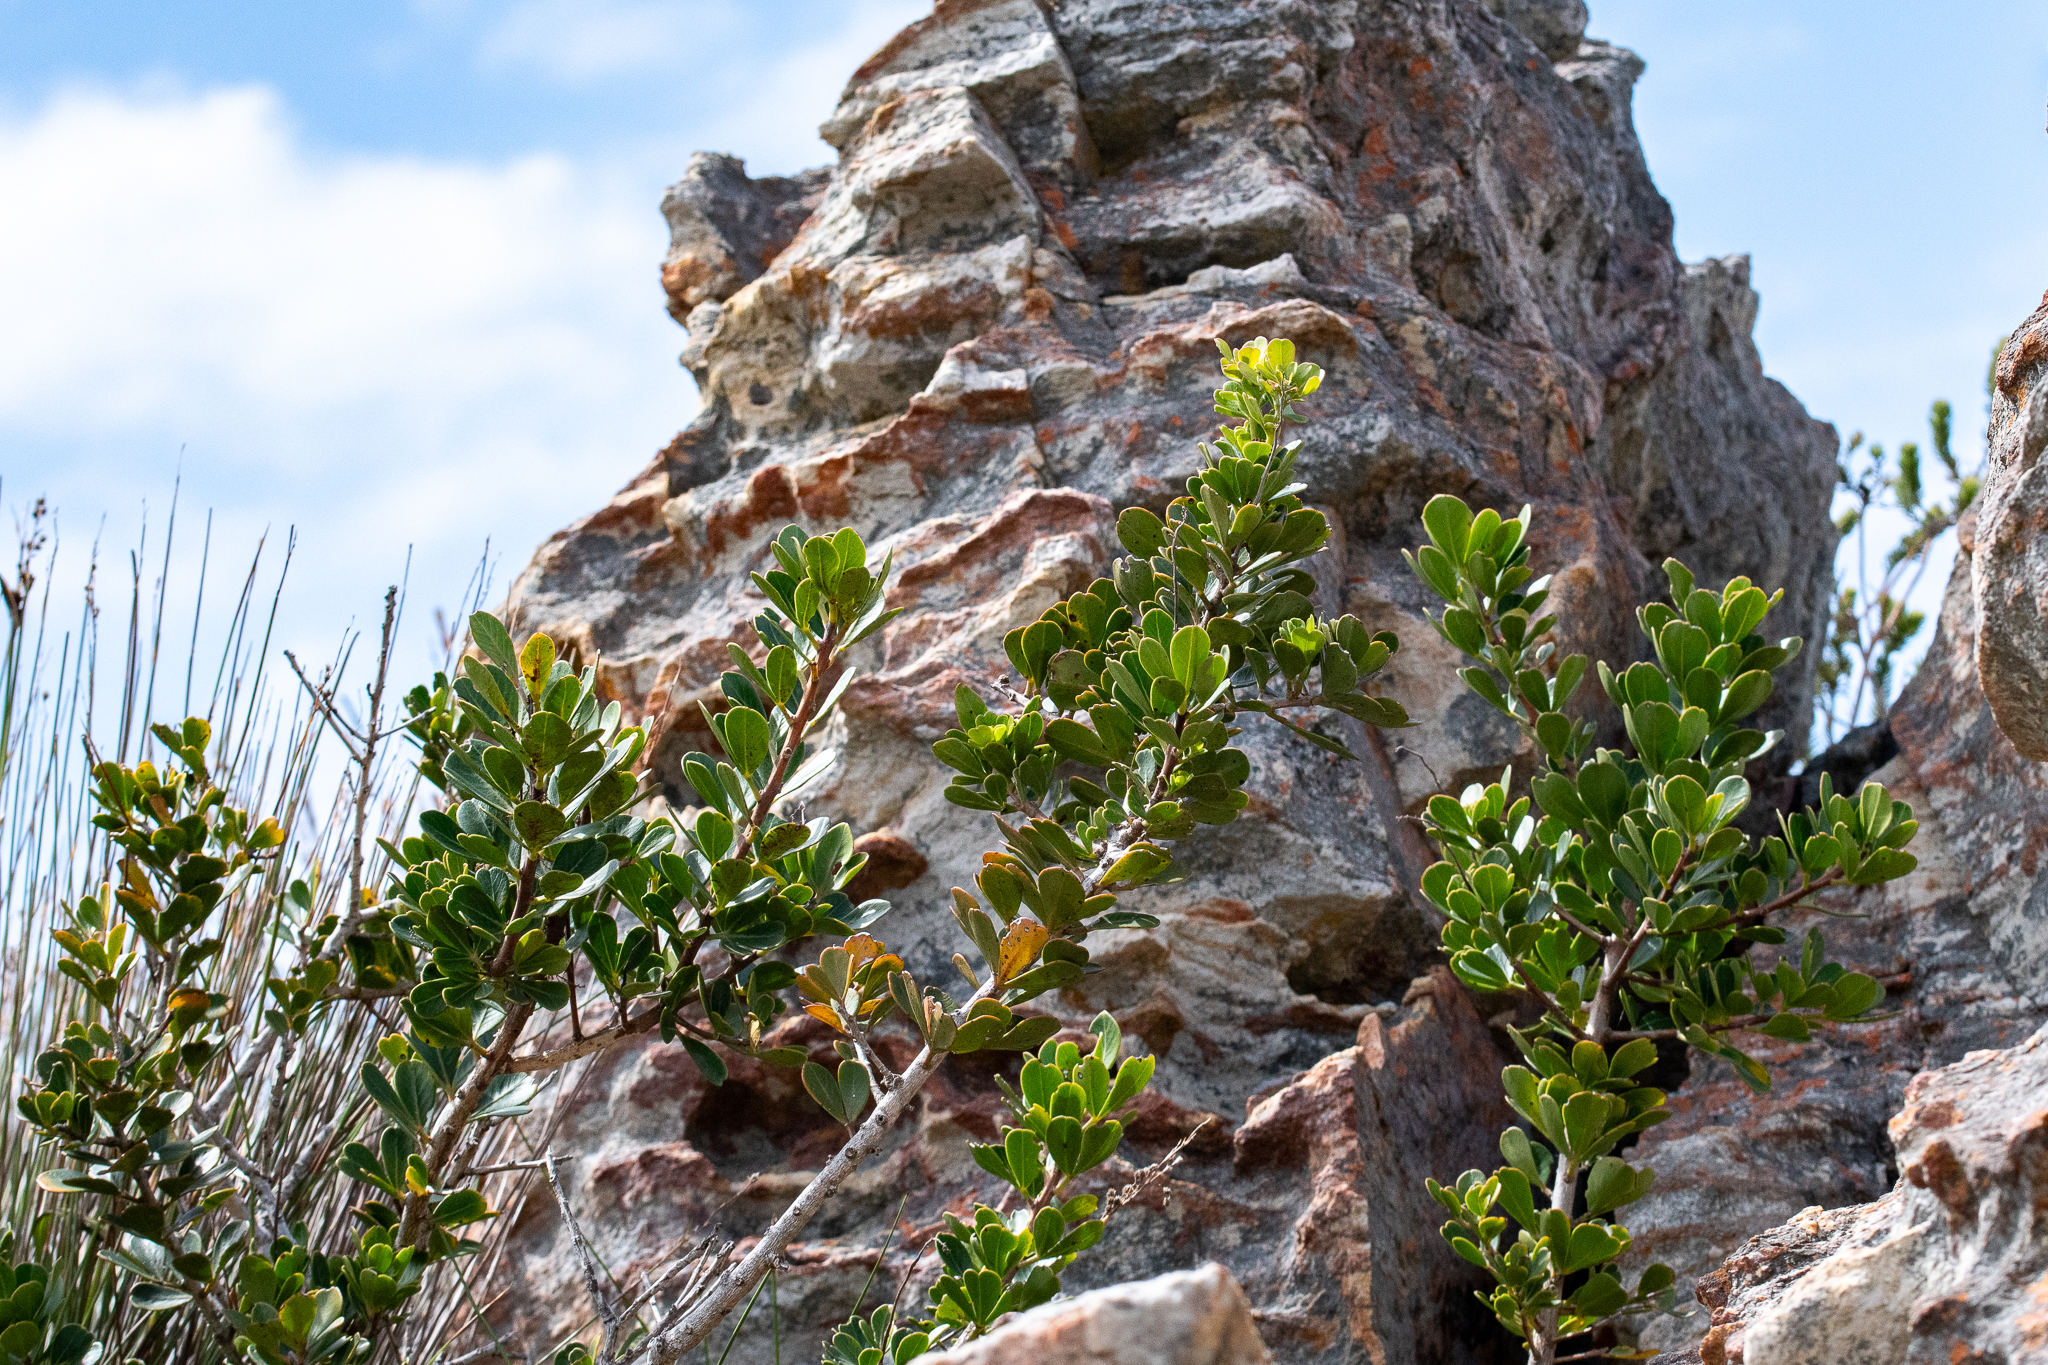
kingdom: Plantae
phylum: Tracheophyta
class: Magnoliopsida
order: Sapindales
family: Anacardiaceae
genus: Searsia
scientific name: Searsia scytophylla
